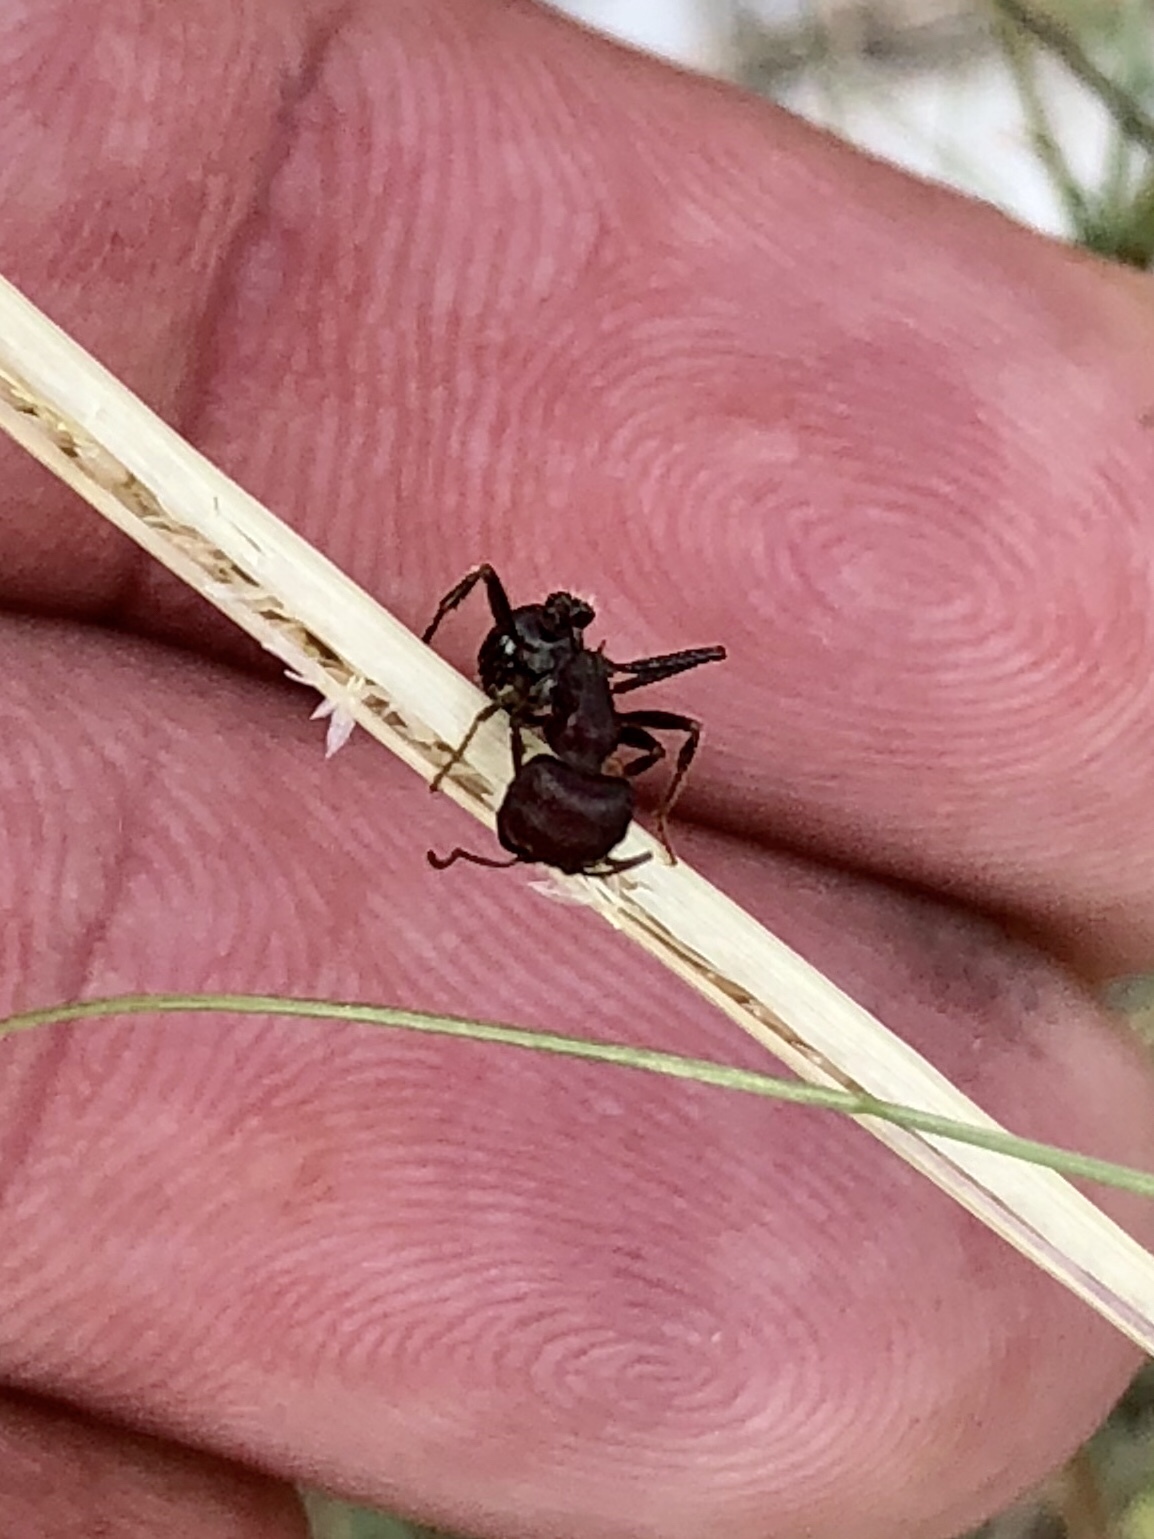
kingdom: Animalia
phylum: Arthropoda
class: Insecta
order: Hymenoptera
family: Formicidae
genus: Pogonomyrmex
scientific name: Pogonomyrmex
